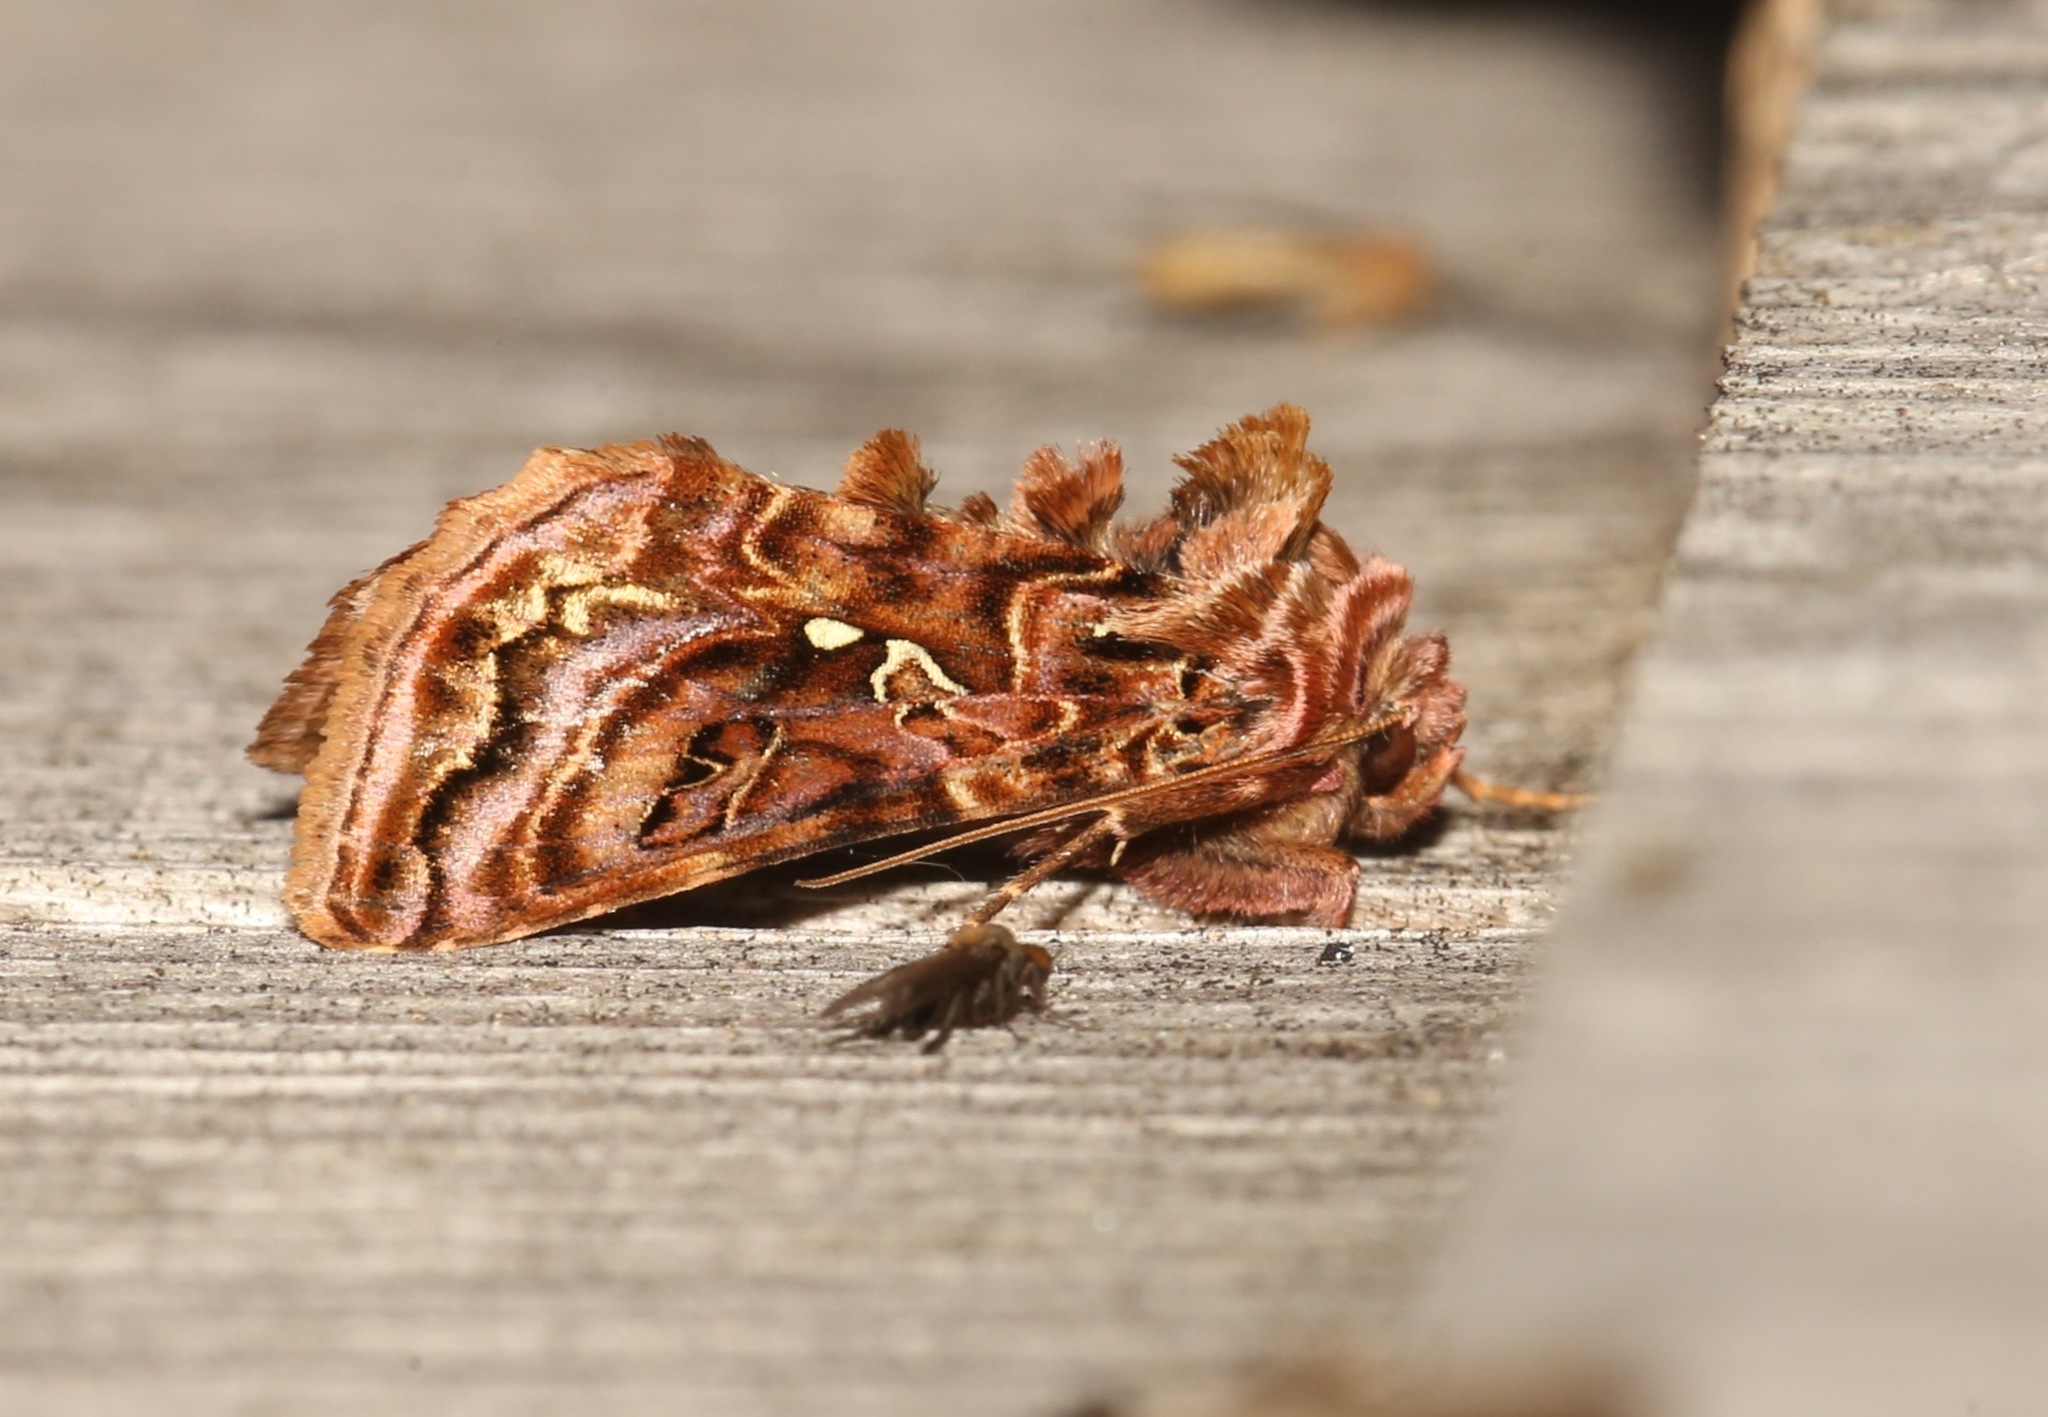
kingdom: Animalia
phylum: Arthropoda
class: Insecta
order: Lepidoptera
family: Noctuidae
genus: Autographa
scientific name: Autographa mappa
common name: Wavy chestnut y moth
